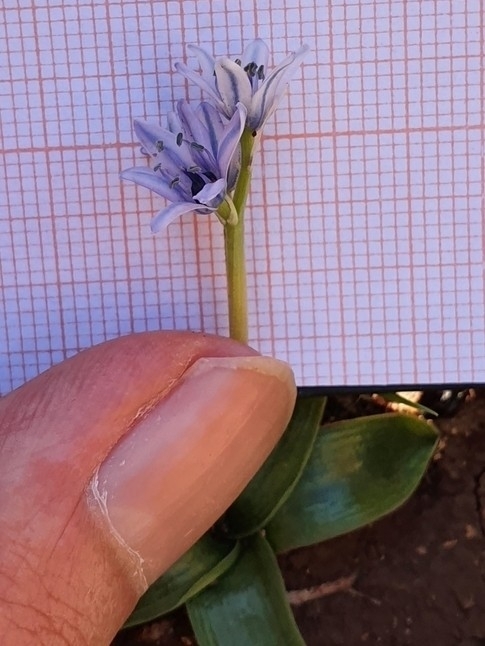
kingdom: Plantae
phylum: Tracheophyta
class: Liliopsida
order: Asparagales
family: Asparagaceae
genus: Hyacinthoides
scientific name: Hyacinthoides lingulata
